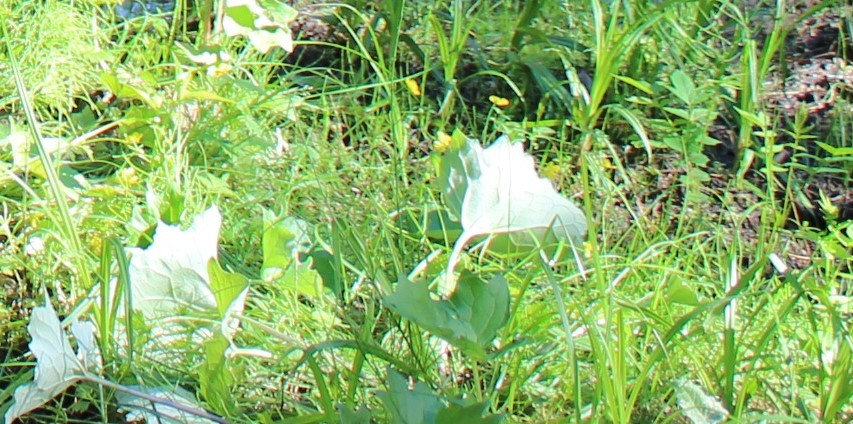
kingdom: Plantae
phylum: Tracheophyta
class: Magnoliopsida
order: Asterales
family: Asteraceae
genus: Petasites
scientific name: Petasites frigidus
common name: Arctic butterbur
